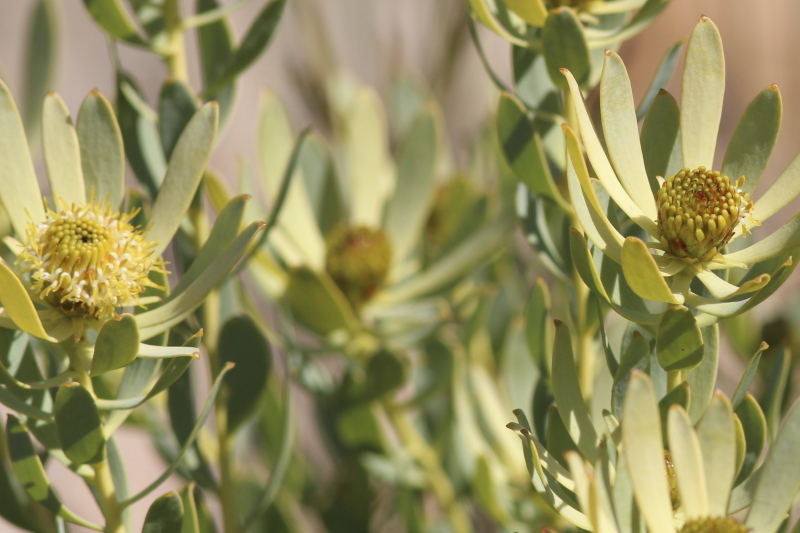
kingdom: Plantae
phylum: Tracheophyta
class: Magnoliopsida
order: Proteales
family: Proteaceae
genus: Leucadendron
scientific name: Leucadendron loranthifolium
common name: Green-flower sunbush
